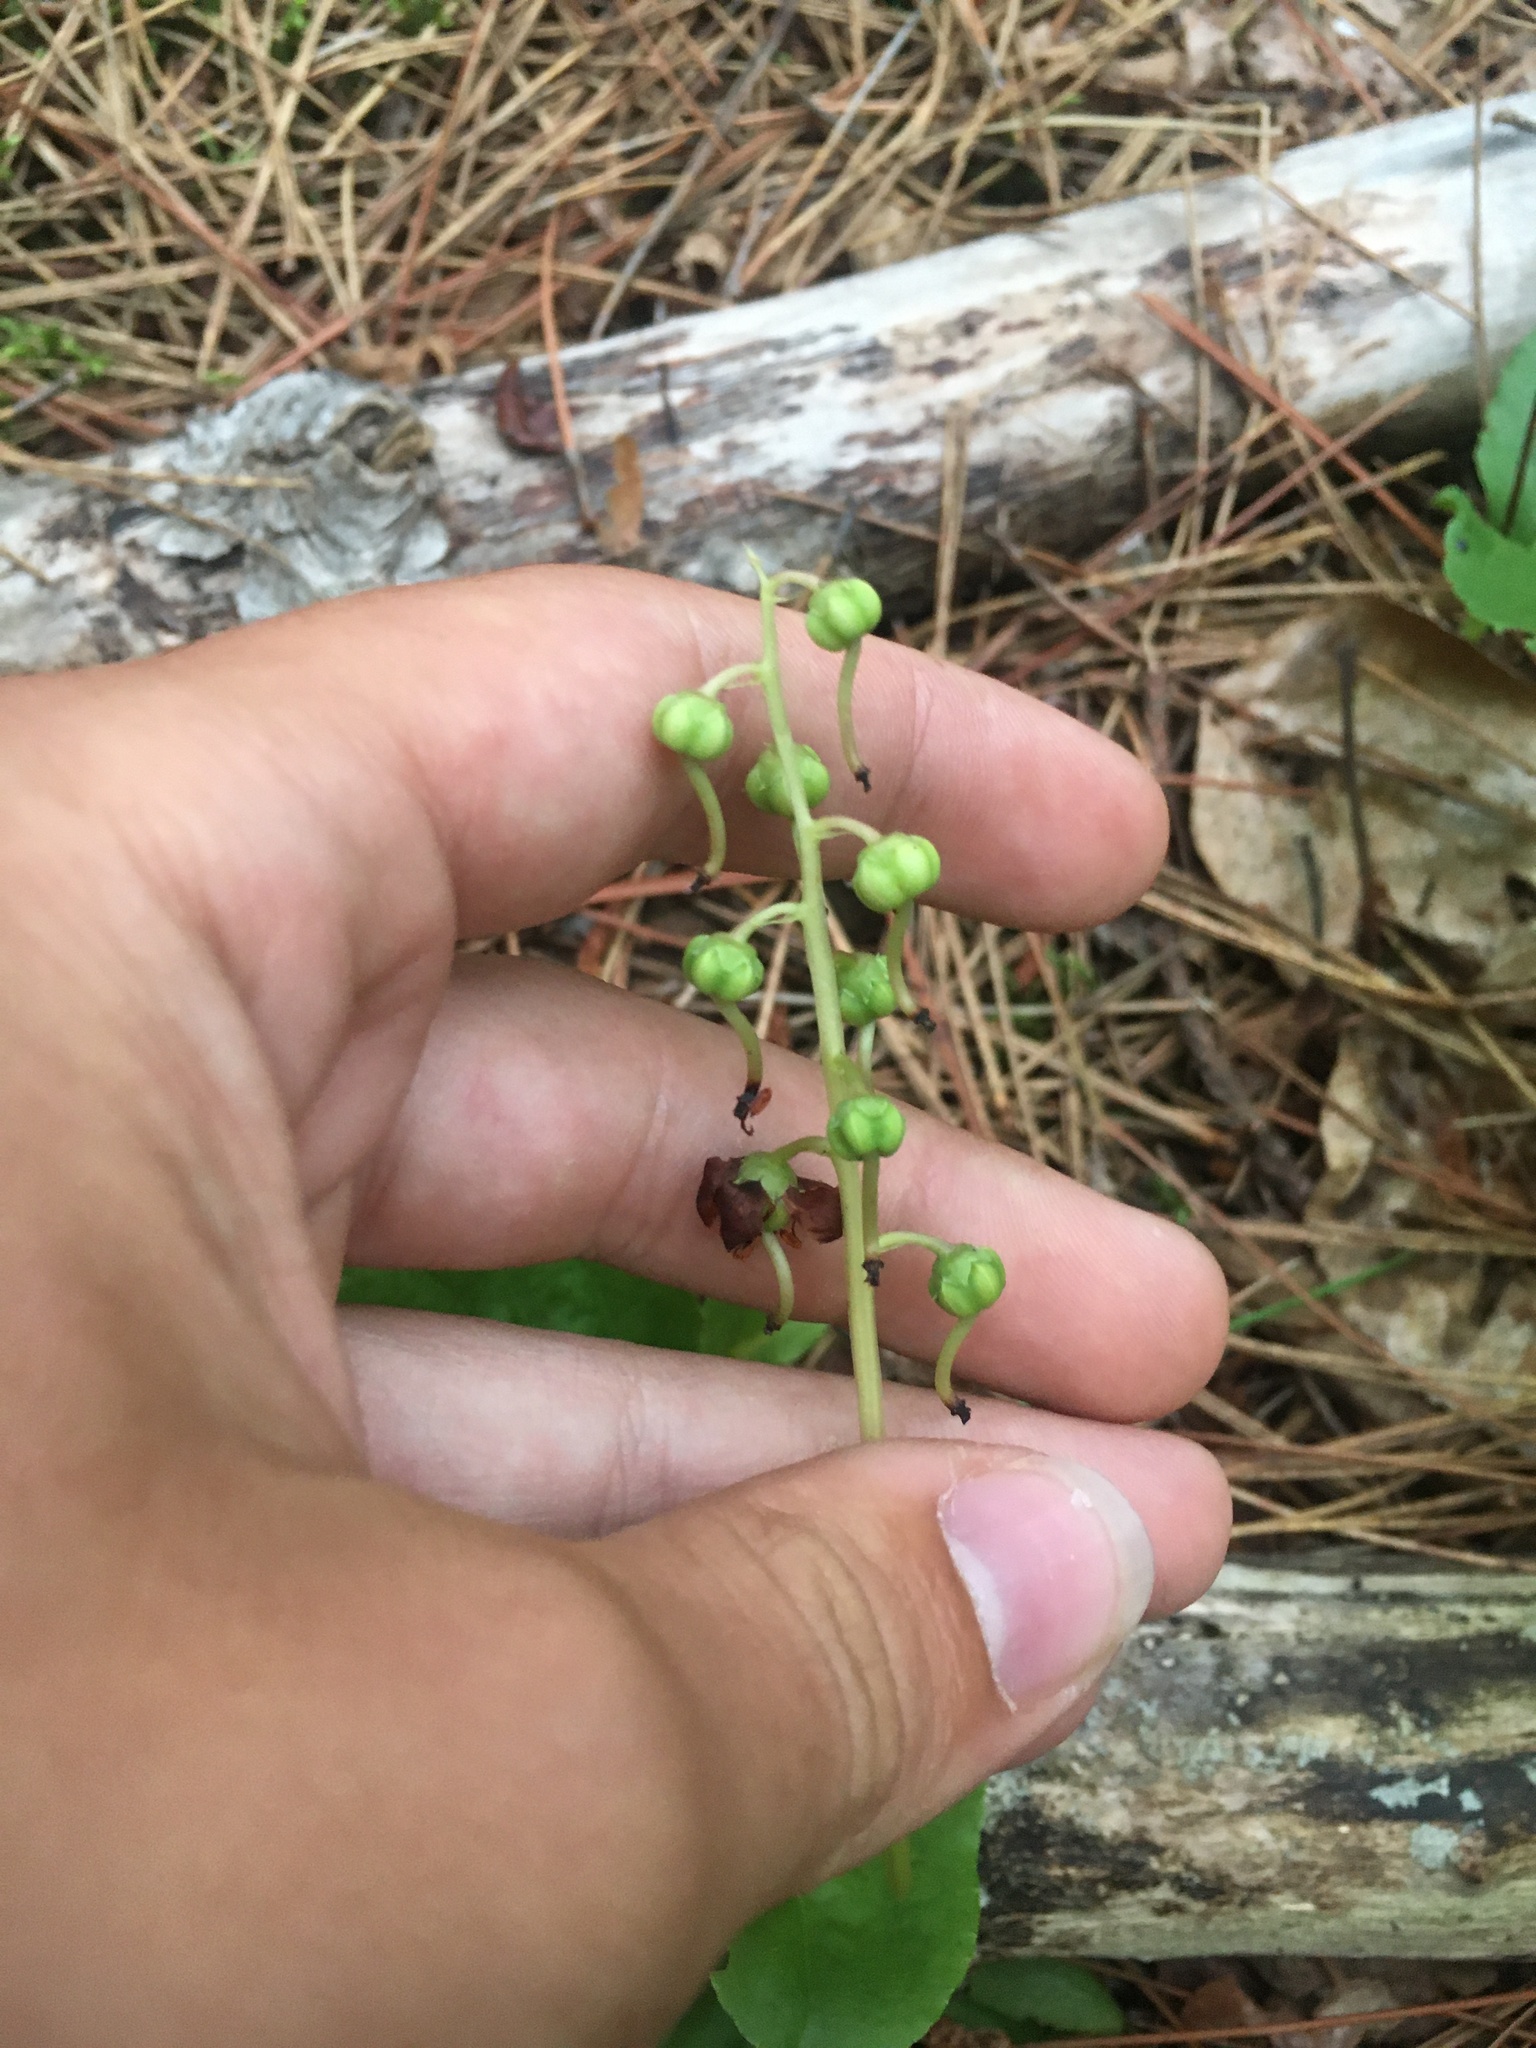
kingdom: Plantae
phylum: Tracheophyta
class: Magnoliopsida
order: Ericales
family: Ericaceae
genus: Pyrola
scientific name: Pyrola elliptica
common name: Shinleaf
